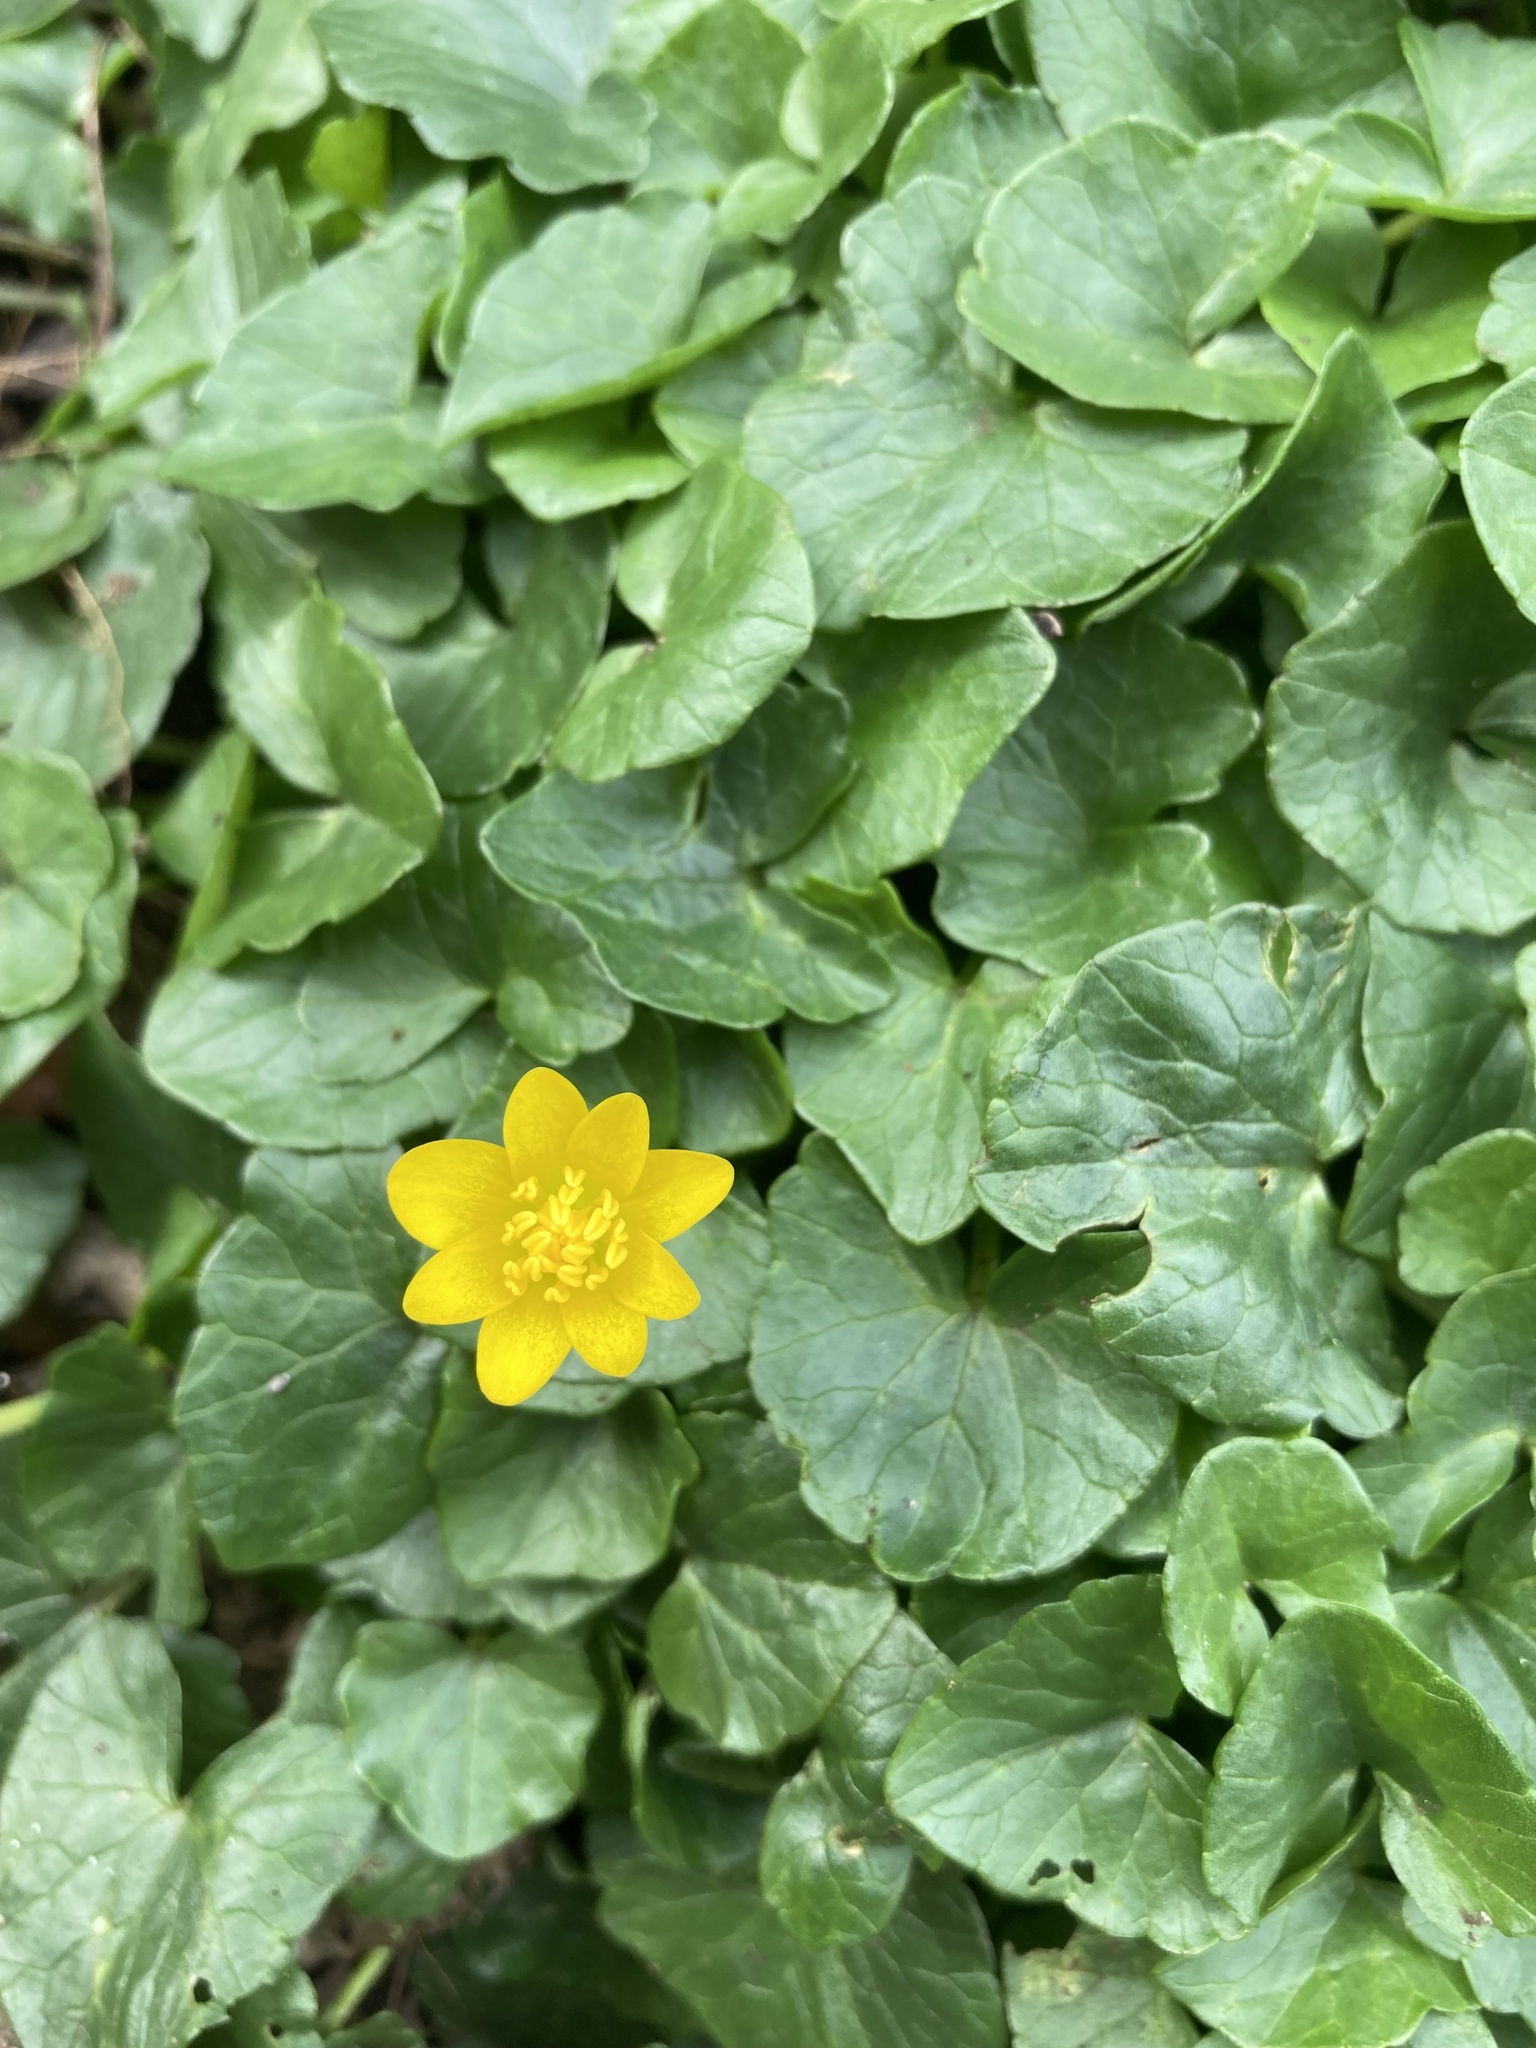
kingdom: Plantae
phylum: Tracheophyta
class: Magnoliopsida
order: Ranunculales
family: Ranunculaceae
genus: Ficaria
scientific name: Ficaria verna
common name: Lesser celandine
